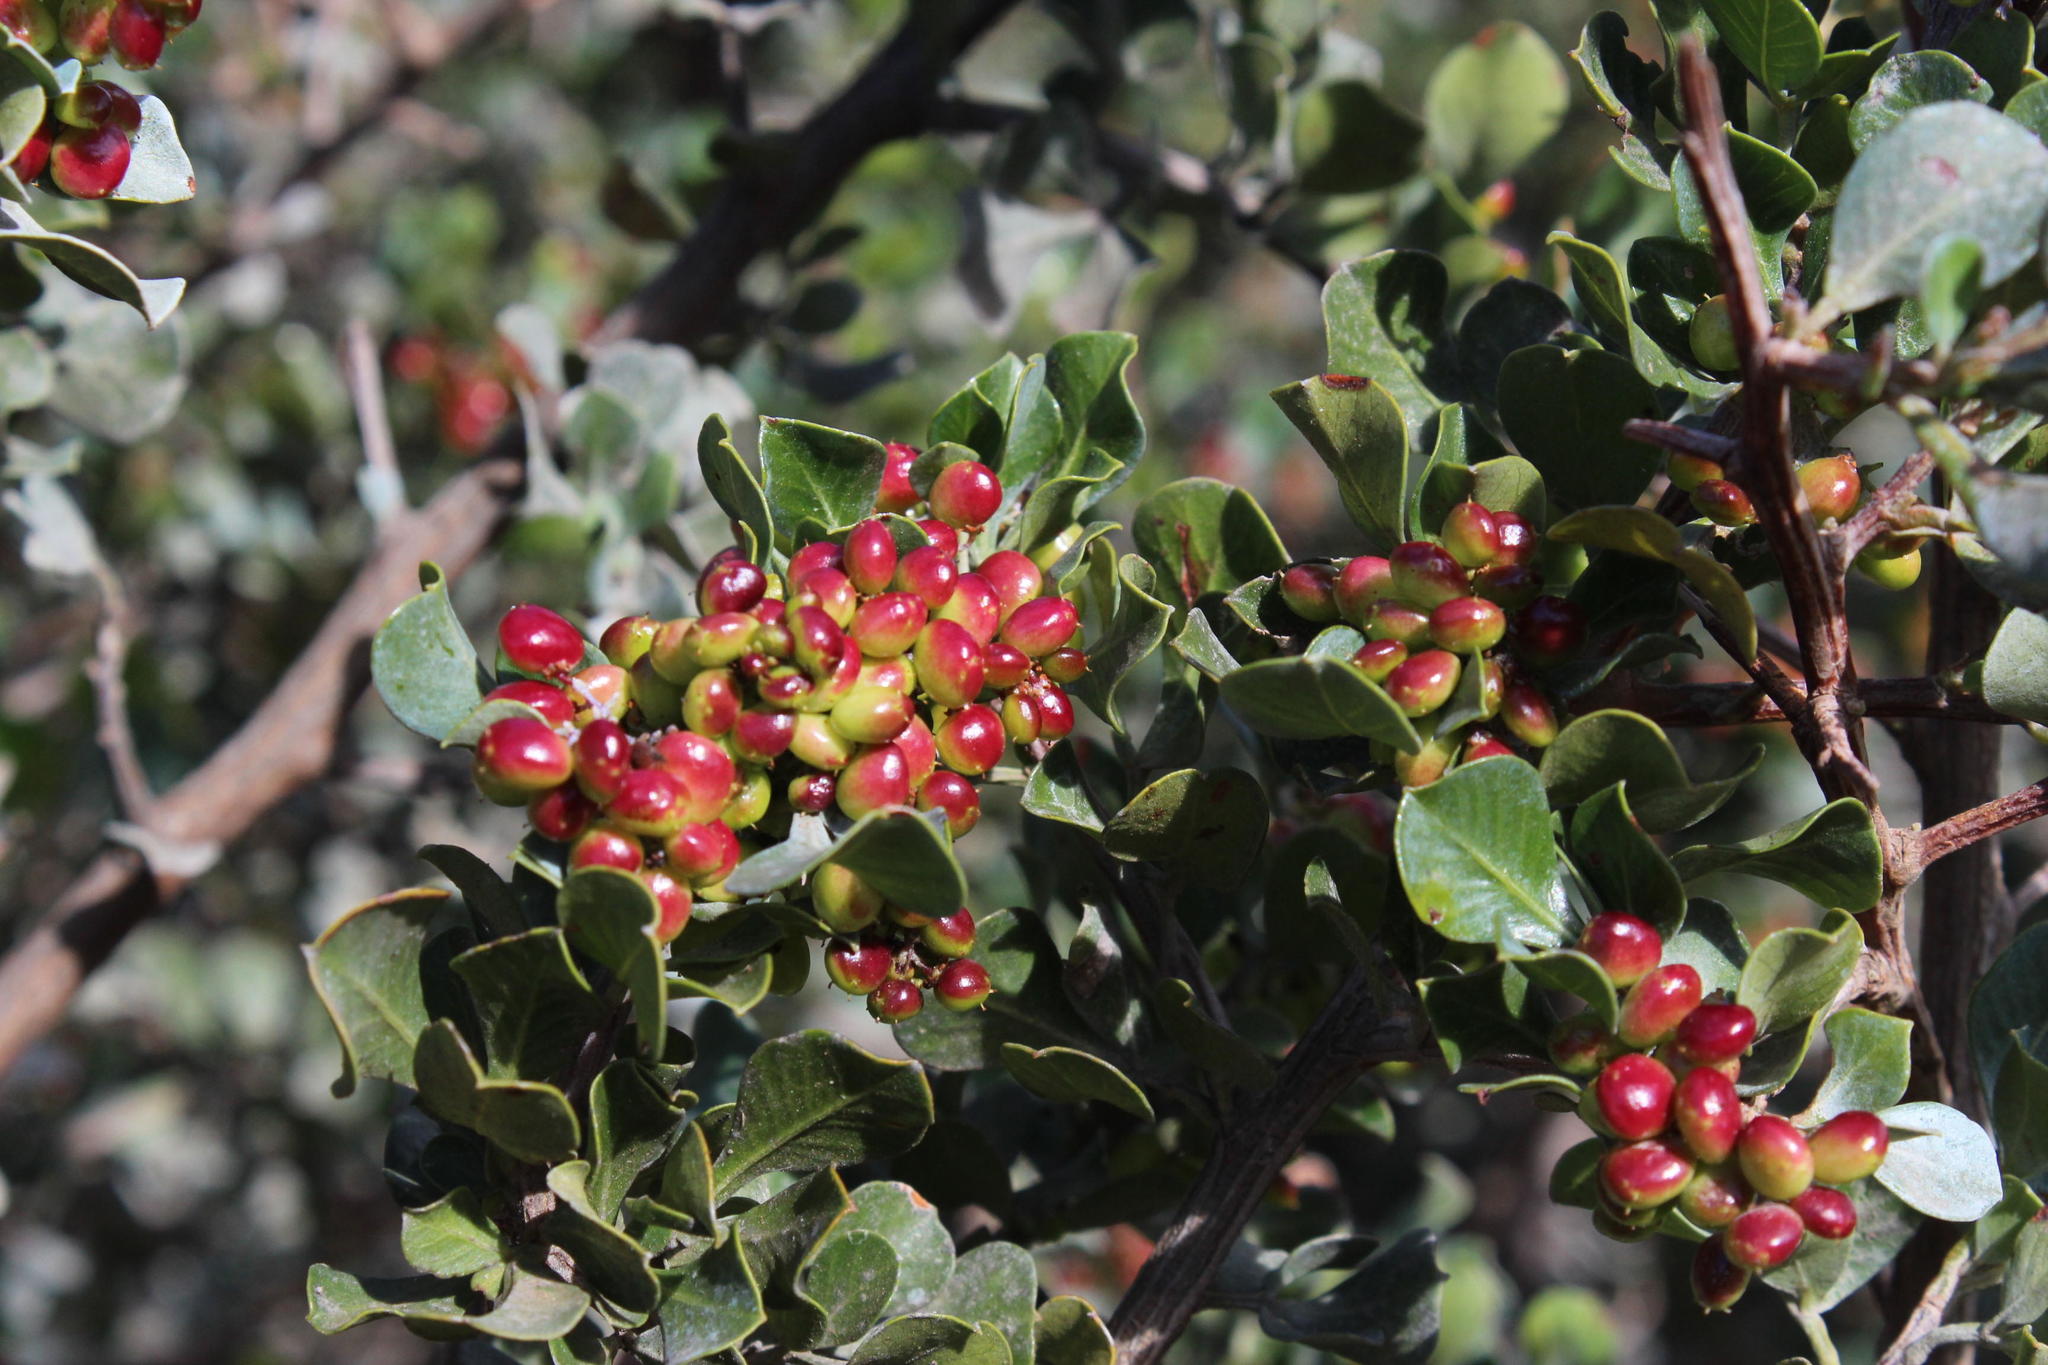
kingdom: Plantae
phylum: Tracheophyta
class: Magnoliopsida
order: Sapindales
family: Anacardiaceae
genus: Searsia
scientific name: Searsia glauca
